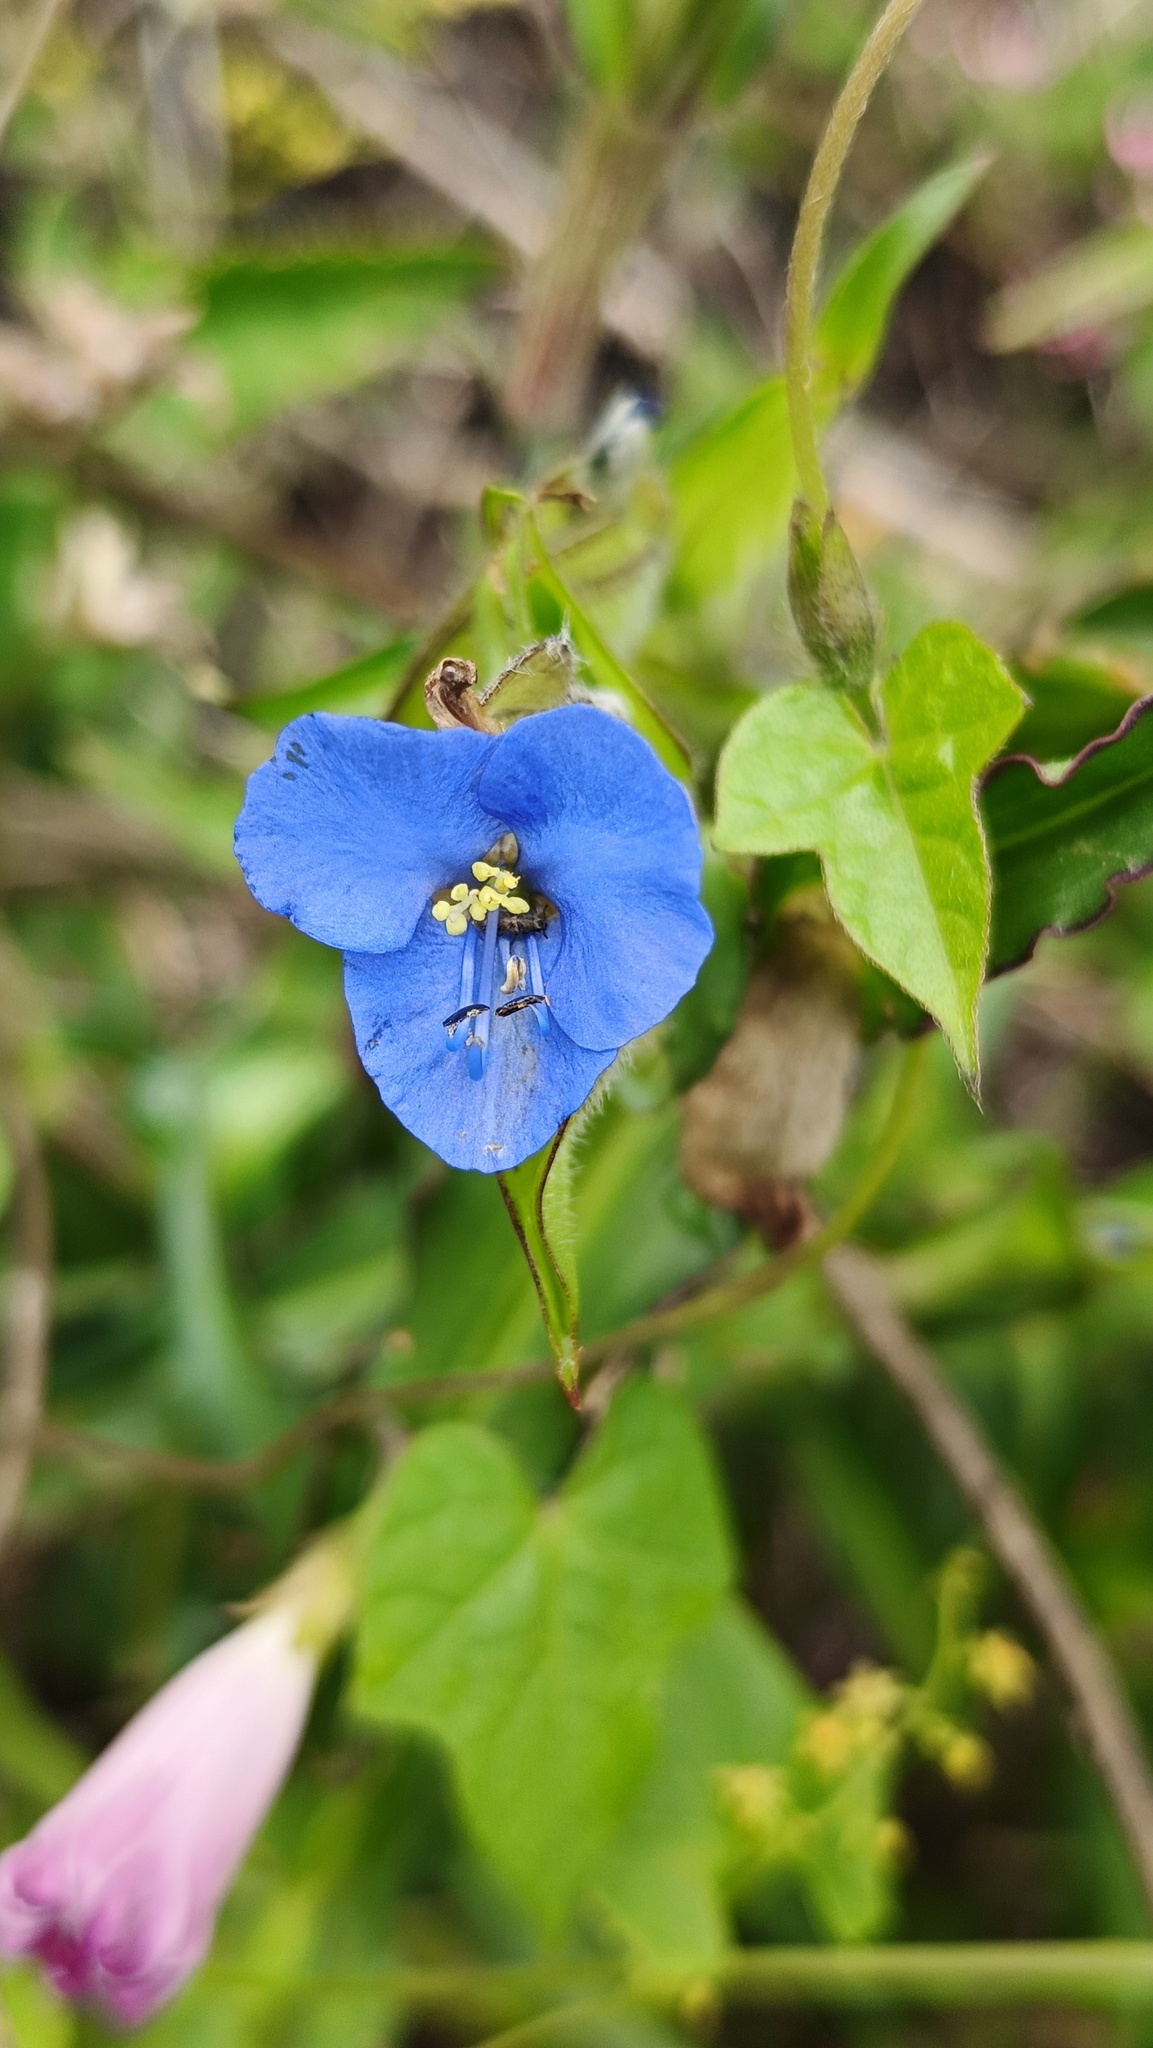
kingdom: Plantae
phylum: Tracheophyta
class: Liliopsida
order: Commelinales
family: Commelinaceae
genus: Commelina
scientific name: Commelina tuberosa
